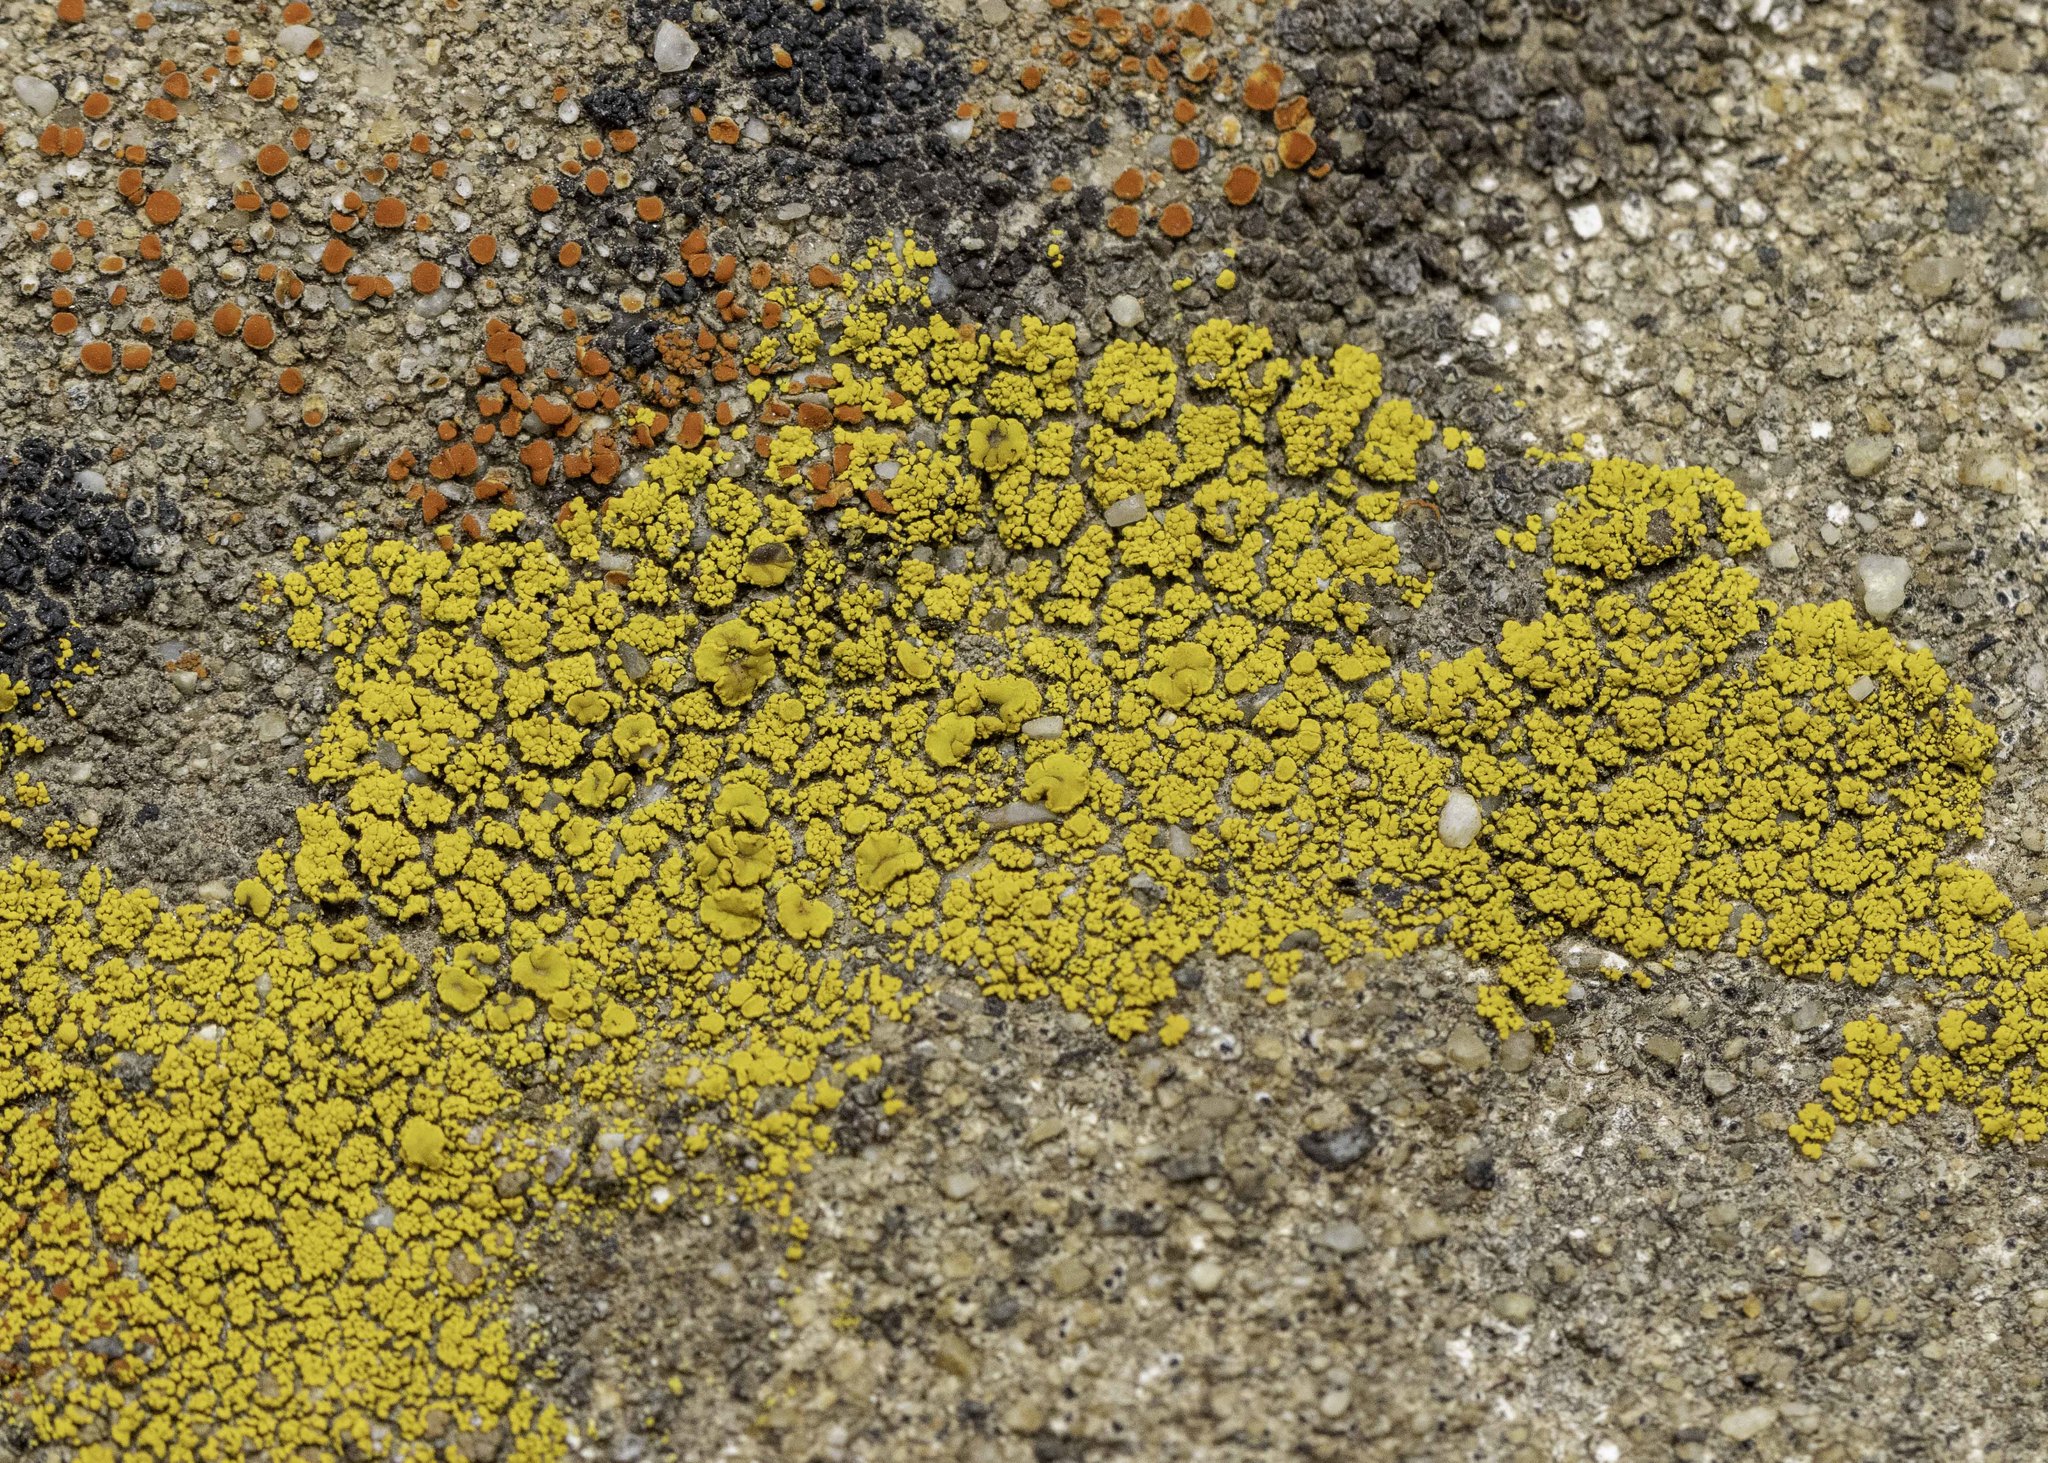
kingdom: Fungi
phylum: Ascomycota
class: Candelariomycetes
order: Candelariales
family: Candelariaceae
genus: Candelariella
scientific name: Candelariella rosulans
